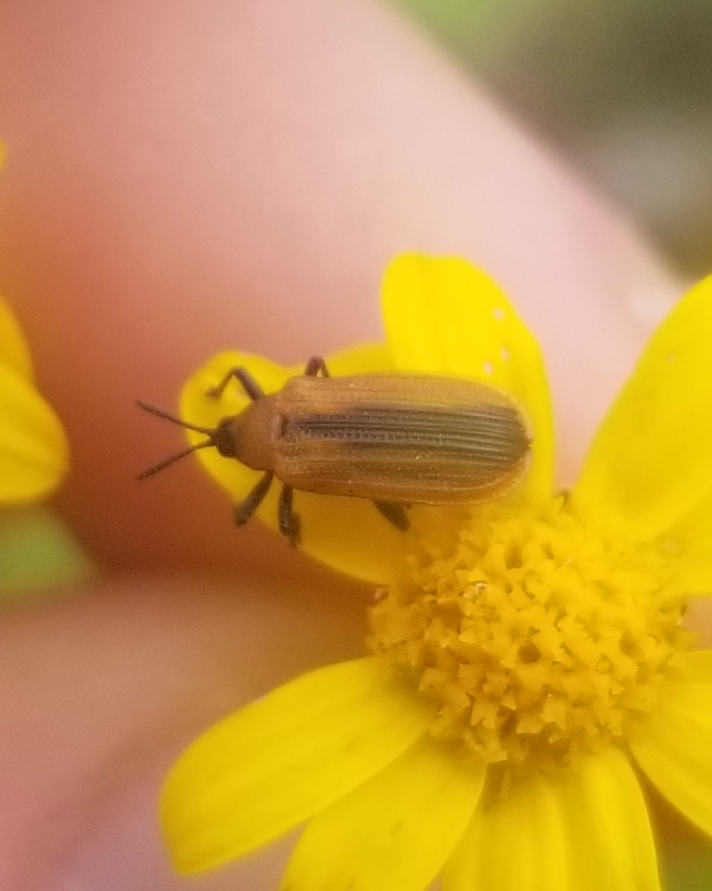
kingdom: Animalia
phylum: Arthropoda
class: Insecta
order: Coleoptera
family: Chrysomelidae
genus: Odontota
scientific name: Odontota dorsalis
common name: Locust leaf-miner beetle
